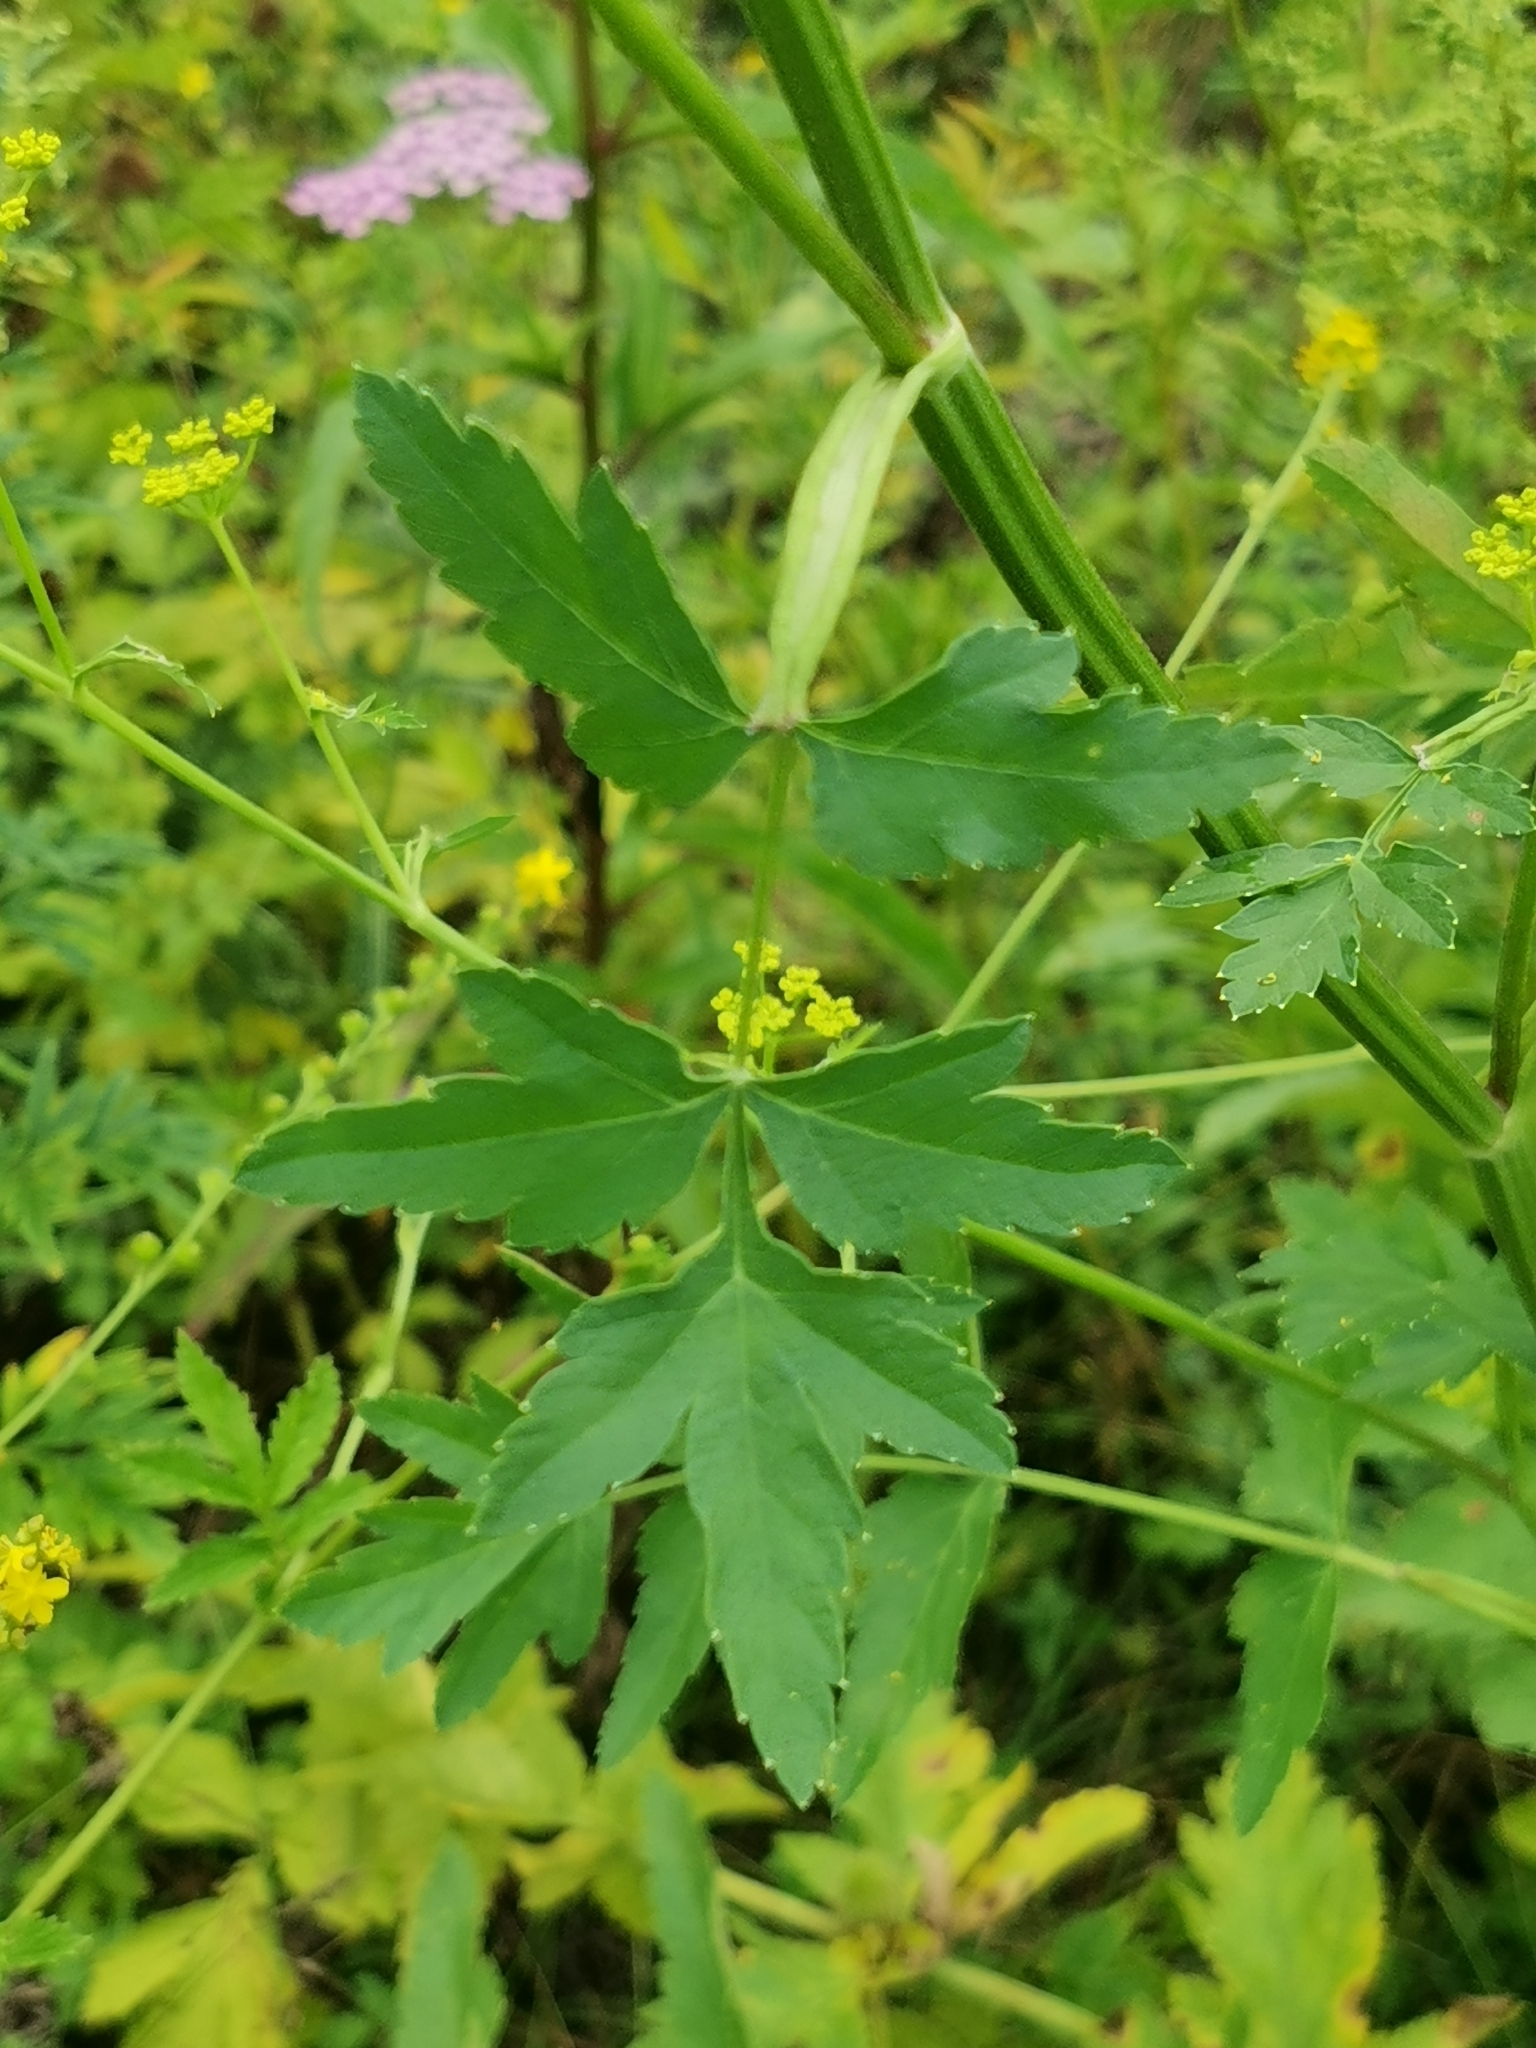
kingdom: Plantae
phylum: Tracheophyta
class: Magnoliopsida
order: Apiales
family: Apiaceae
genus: Pastinaca
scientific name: Pastinaca sativa
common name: Wild parsnip
